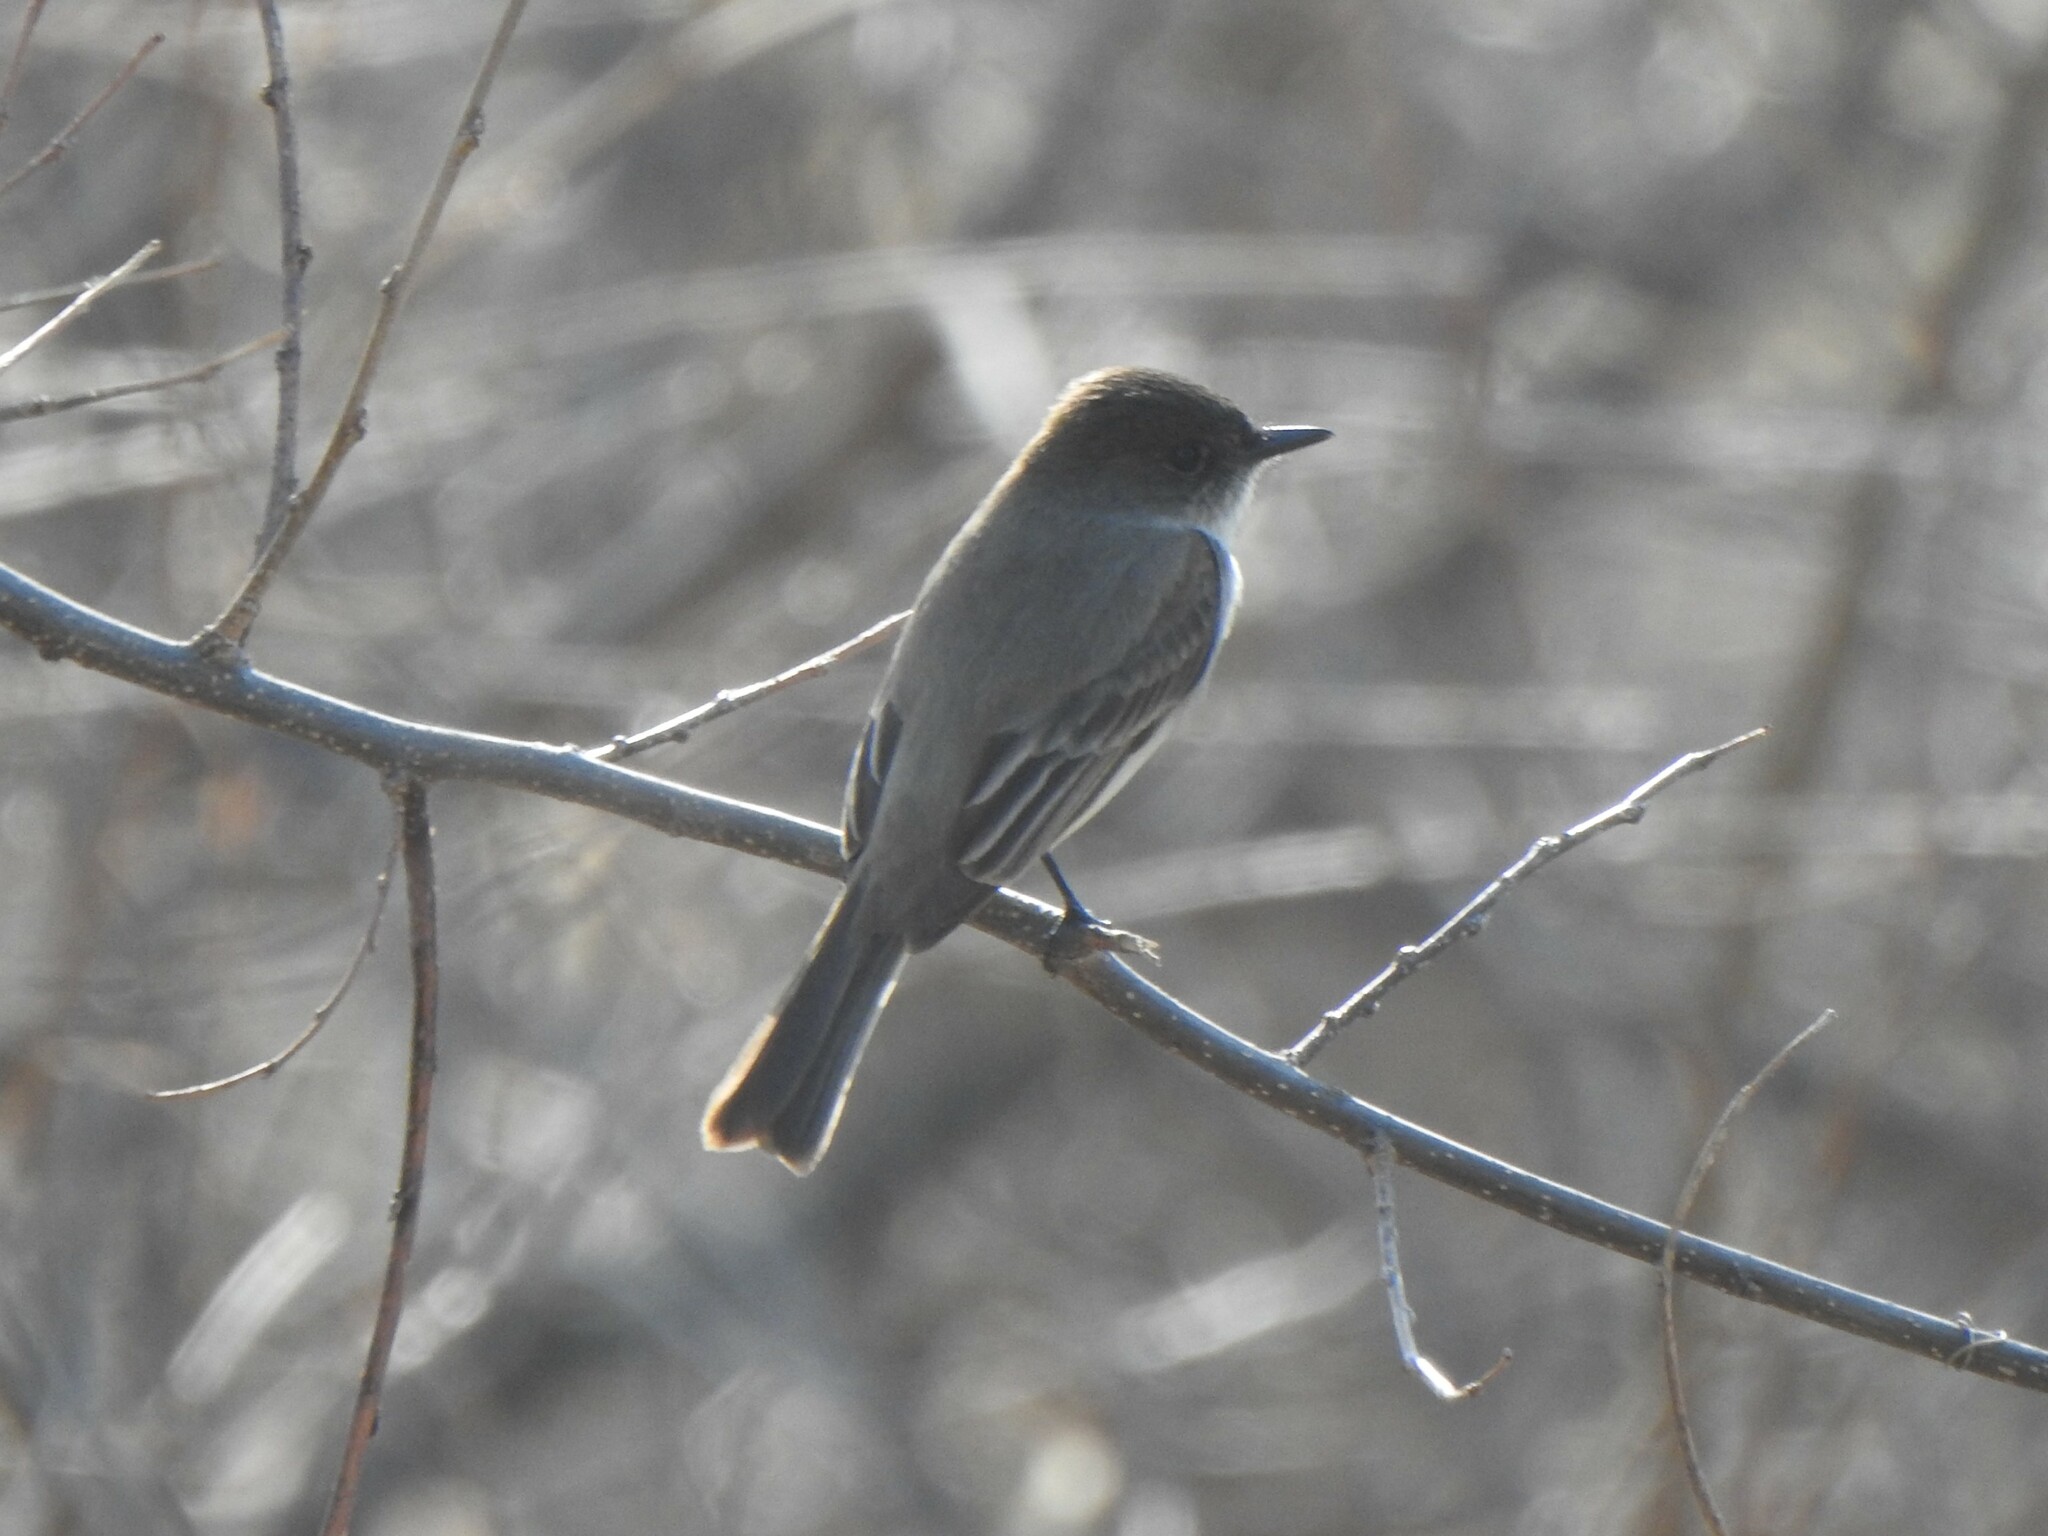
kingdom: Animalia
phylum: Chordata
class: Aves
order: Passeriformes
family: Tyrannidae
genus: Sayornis
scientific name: Sayornis phoebe
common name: Eastern phoebe
